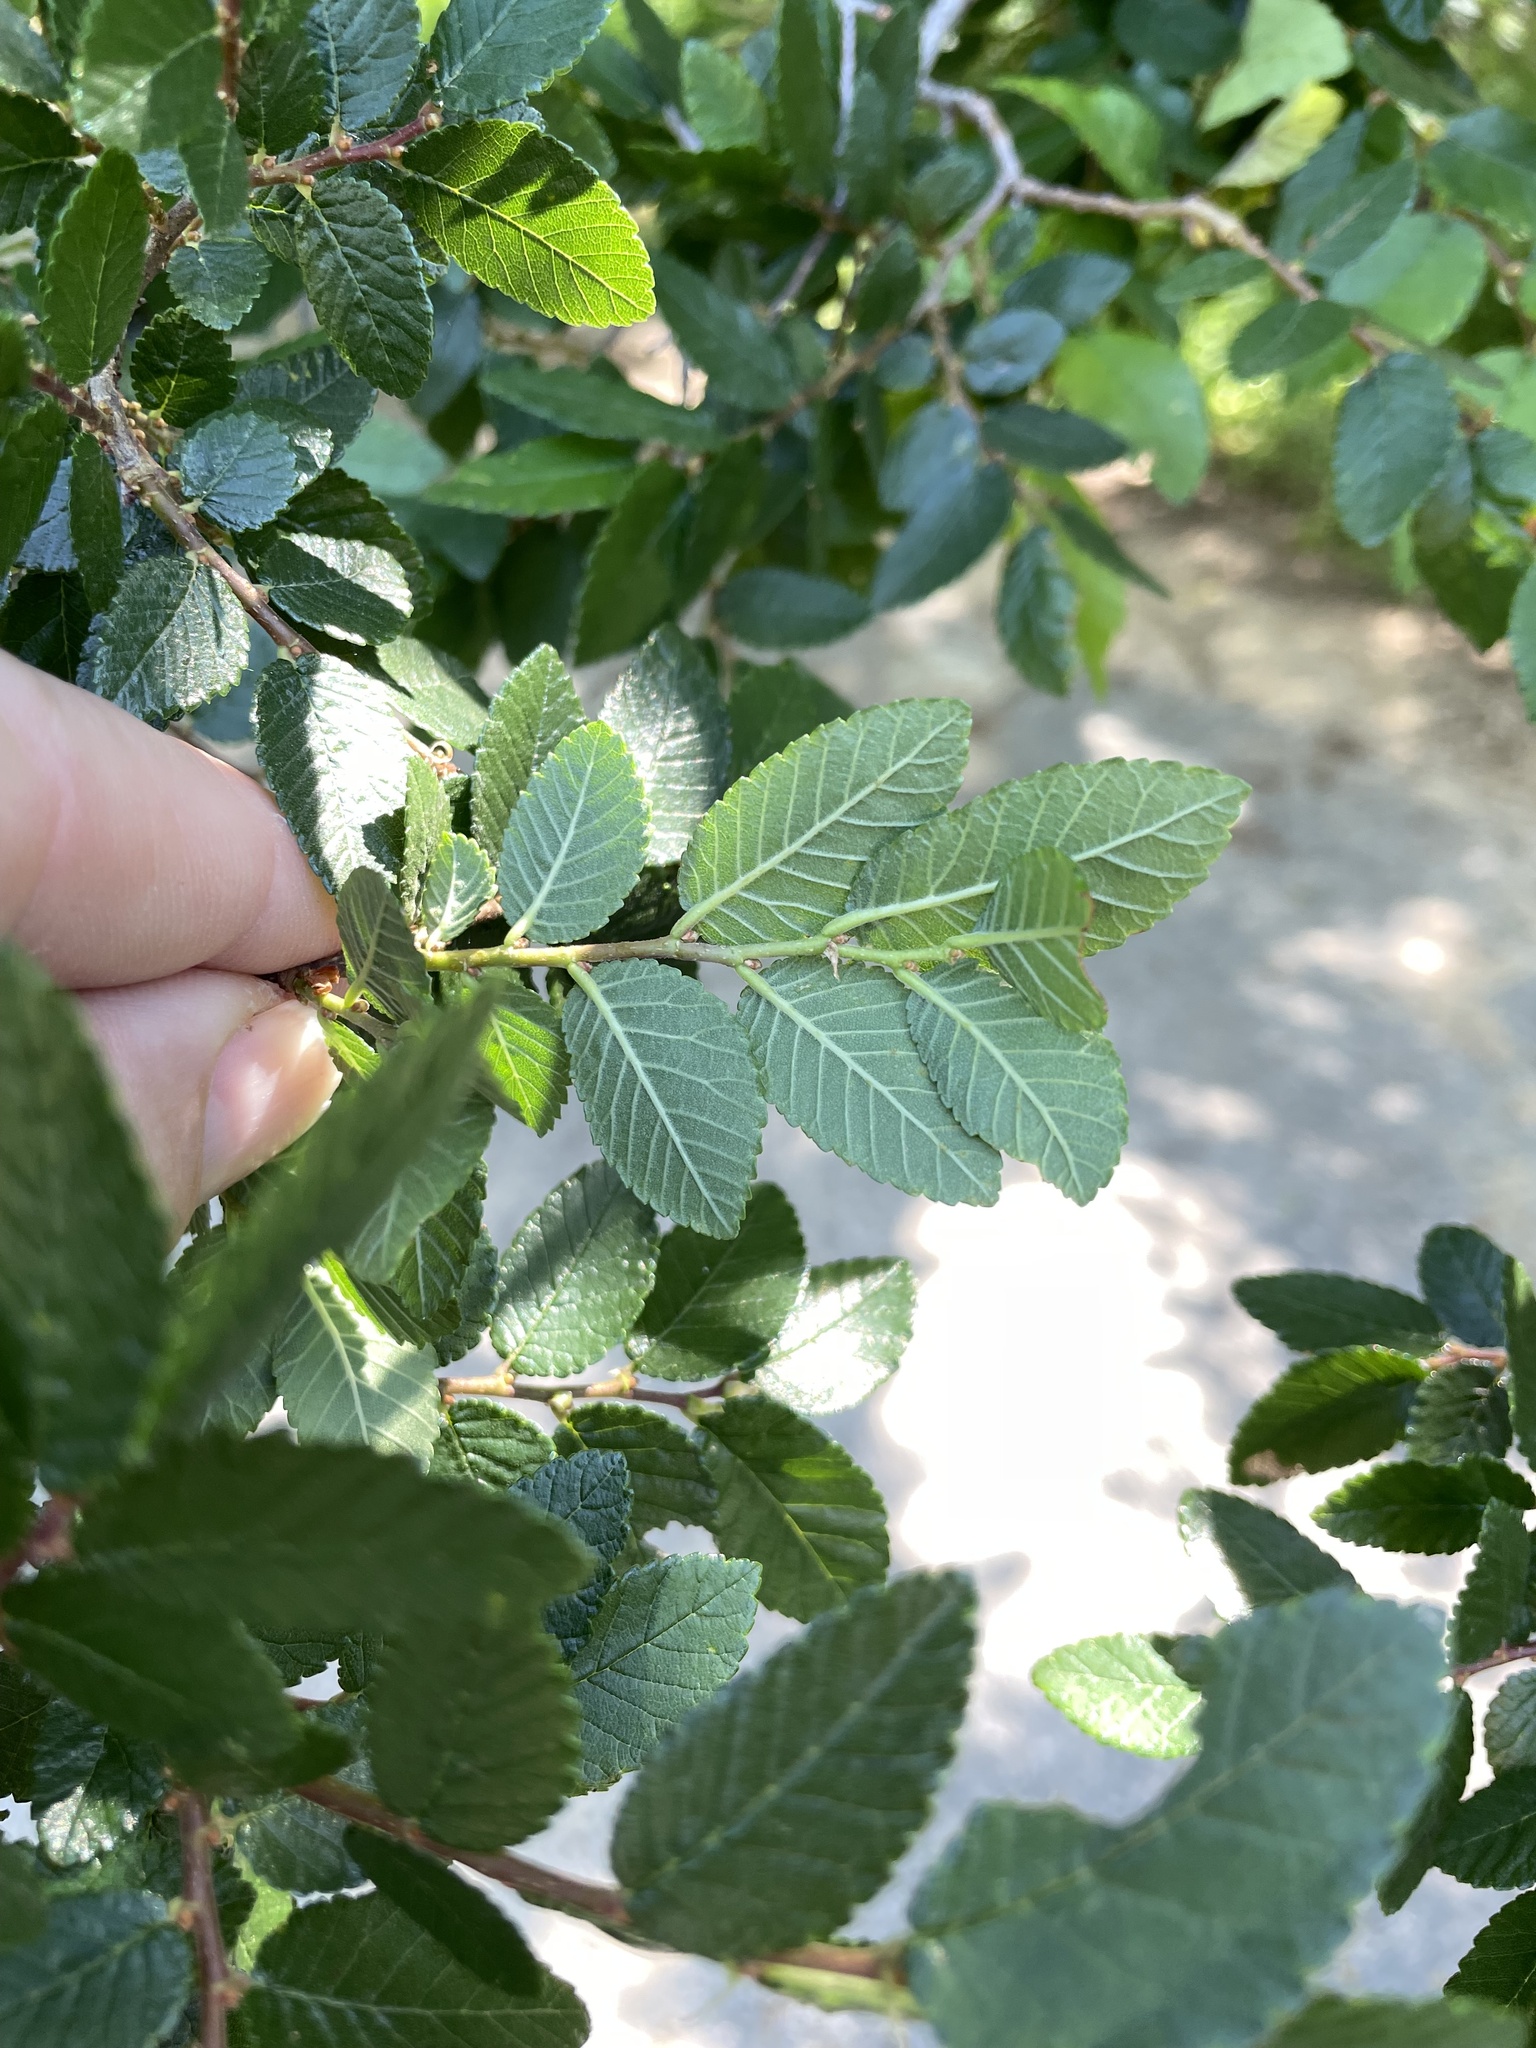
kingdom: Plantae
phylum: Tracheophyta
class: Magnoliopsida
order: Rosales
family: Ulmaceae
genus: Ulmus
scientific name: Ulmus crassifolia
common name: Basket elm
